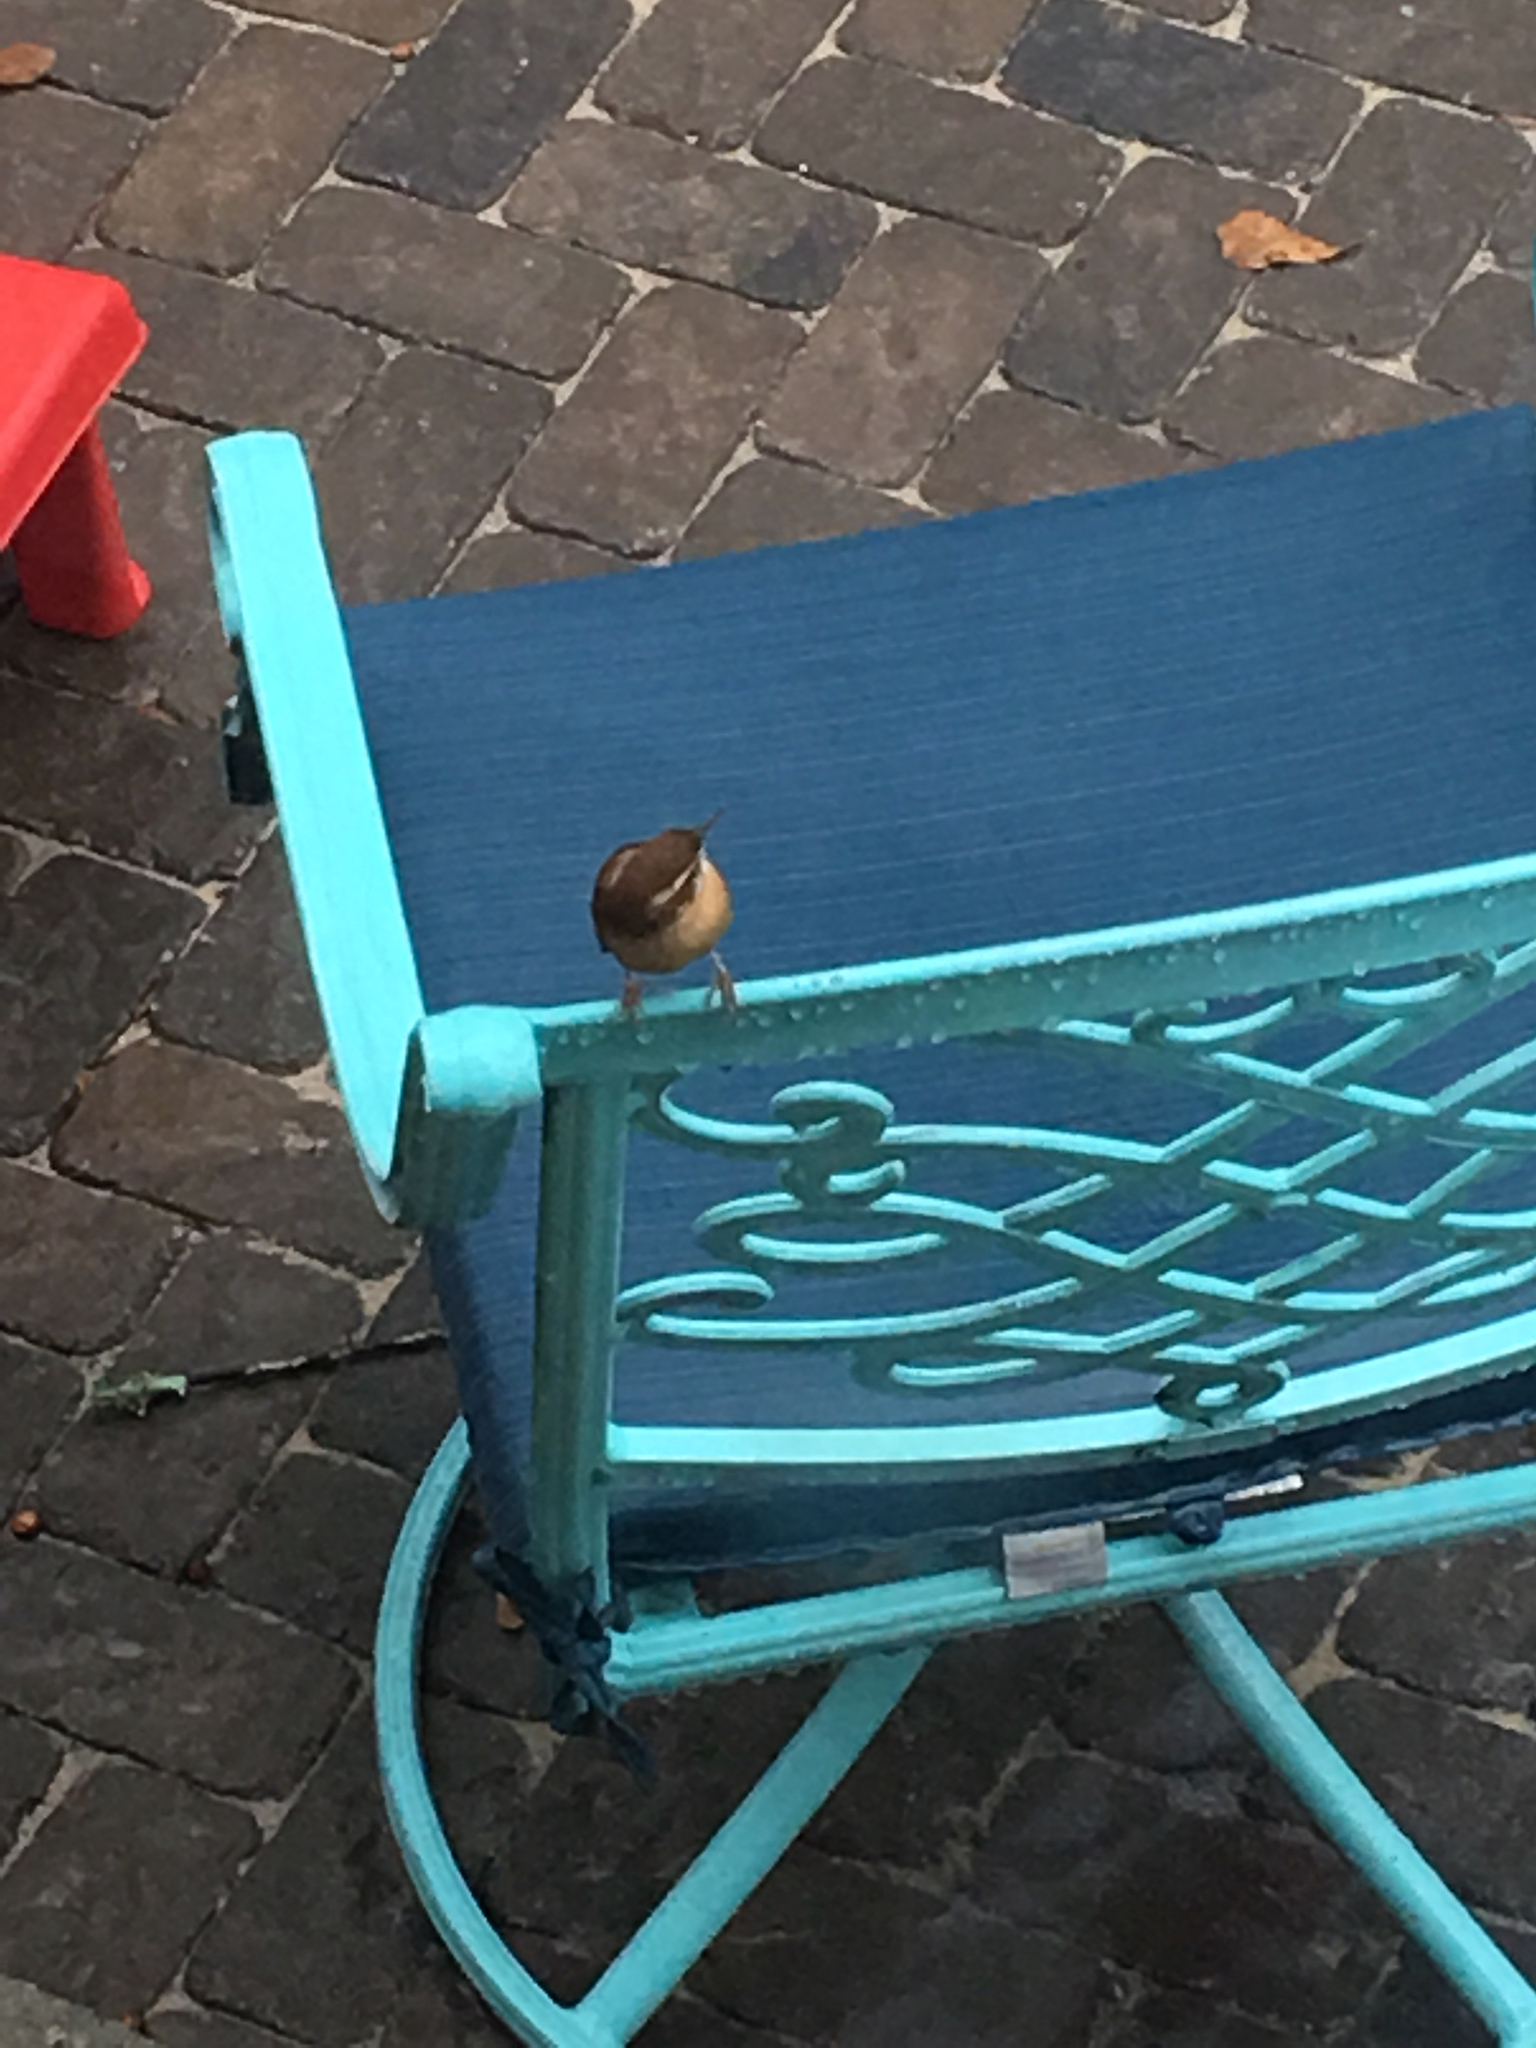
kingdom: Animalia
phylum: Chordata
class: Aves
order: Passeriformes
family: Troglodytidae
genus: Thryothorus
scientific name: Thryothorus ludovicianus
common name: Carolina wren
